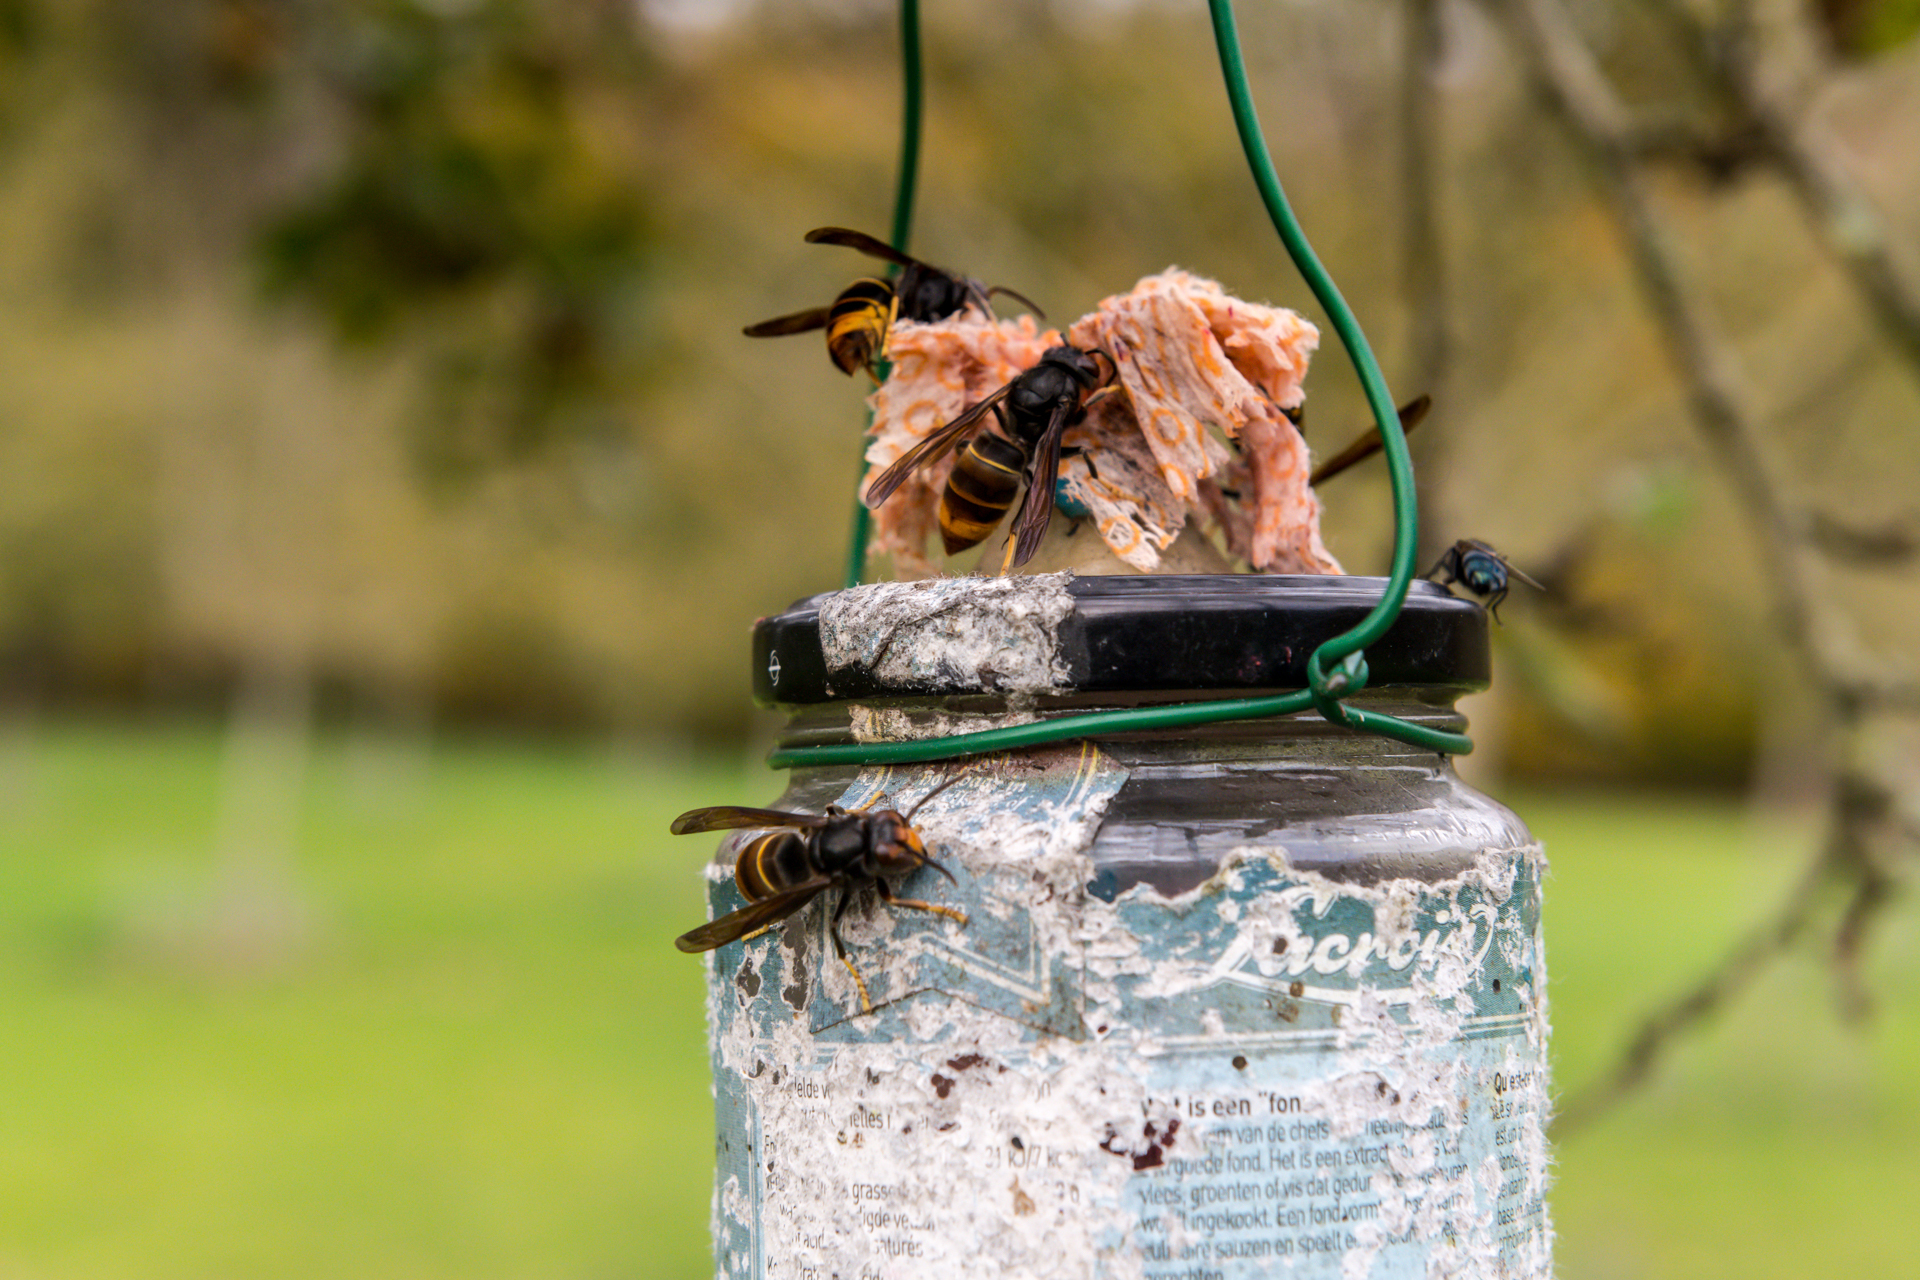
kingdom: Animalia
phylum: Arthropoda
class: Insecta
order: Hymenoptera
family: Vespidae
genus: Vespa
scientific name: Vespa velutina
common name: Asian hornet
